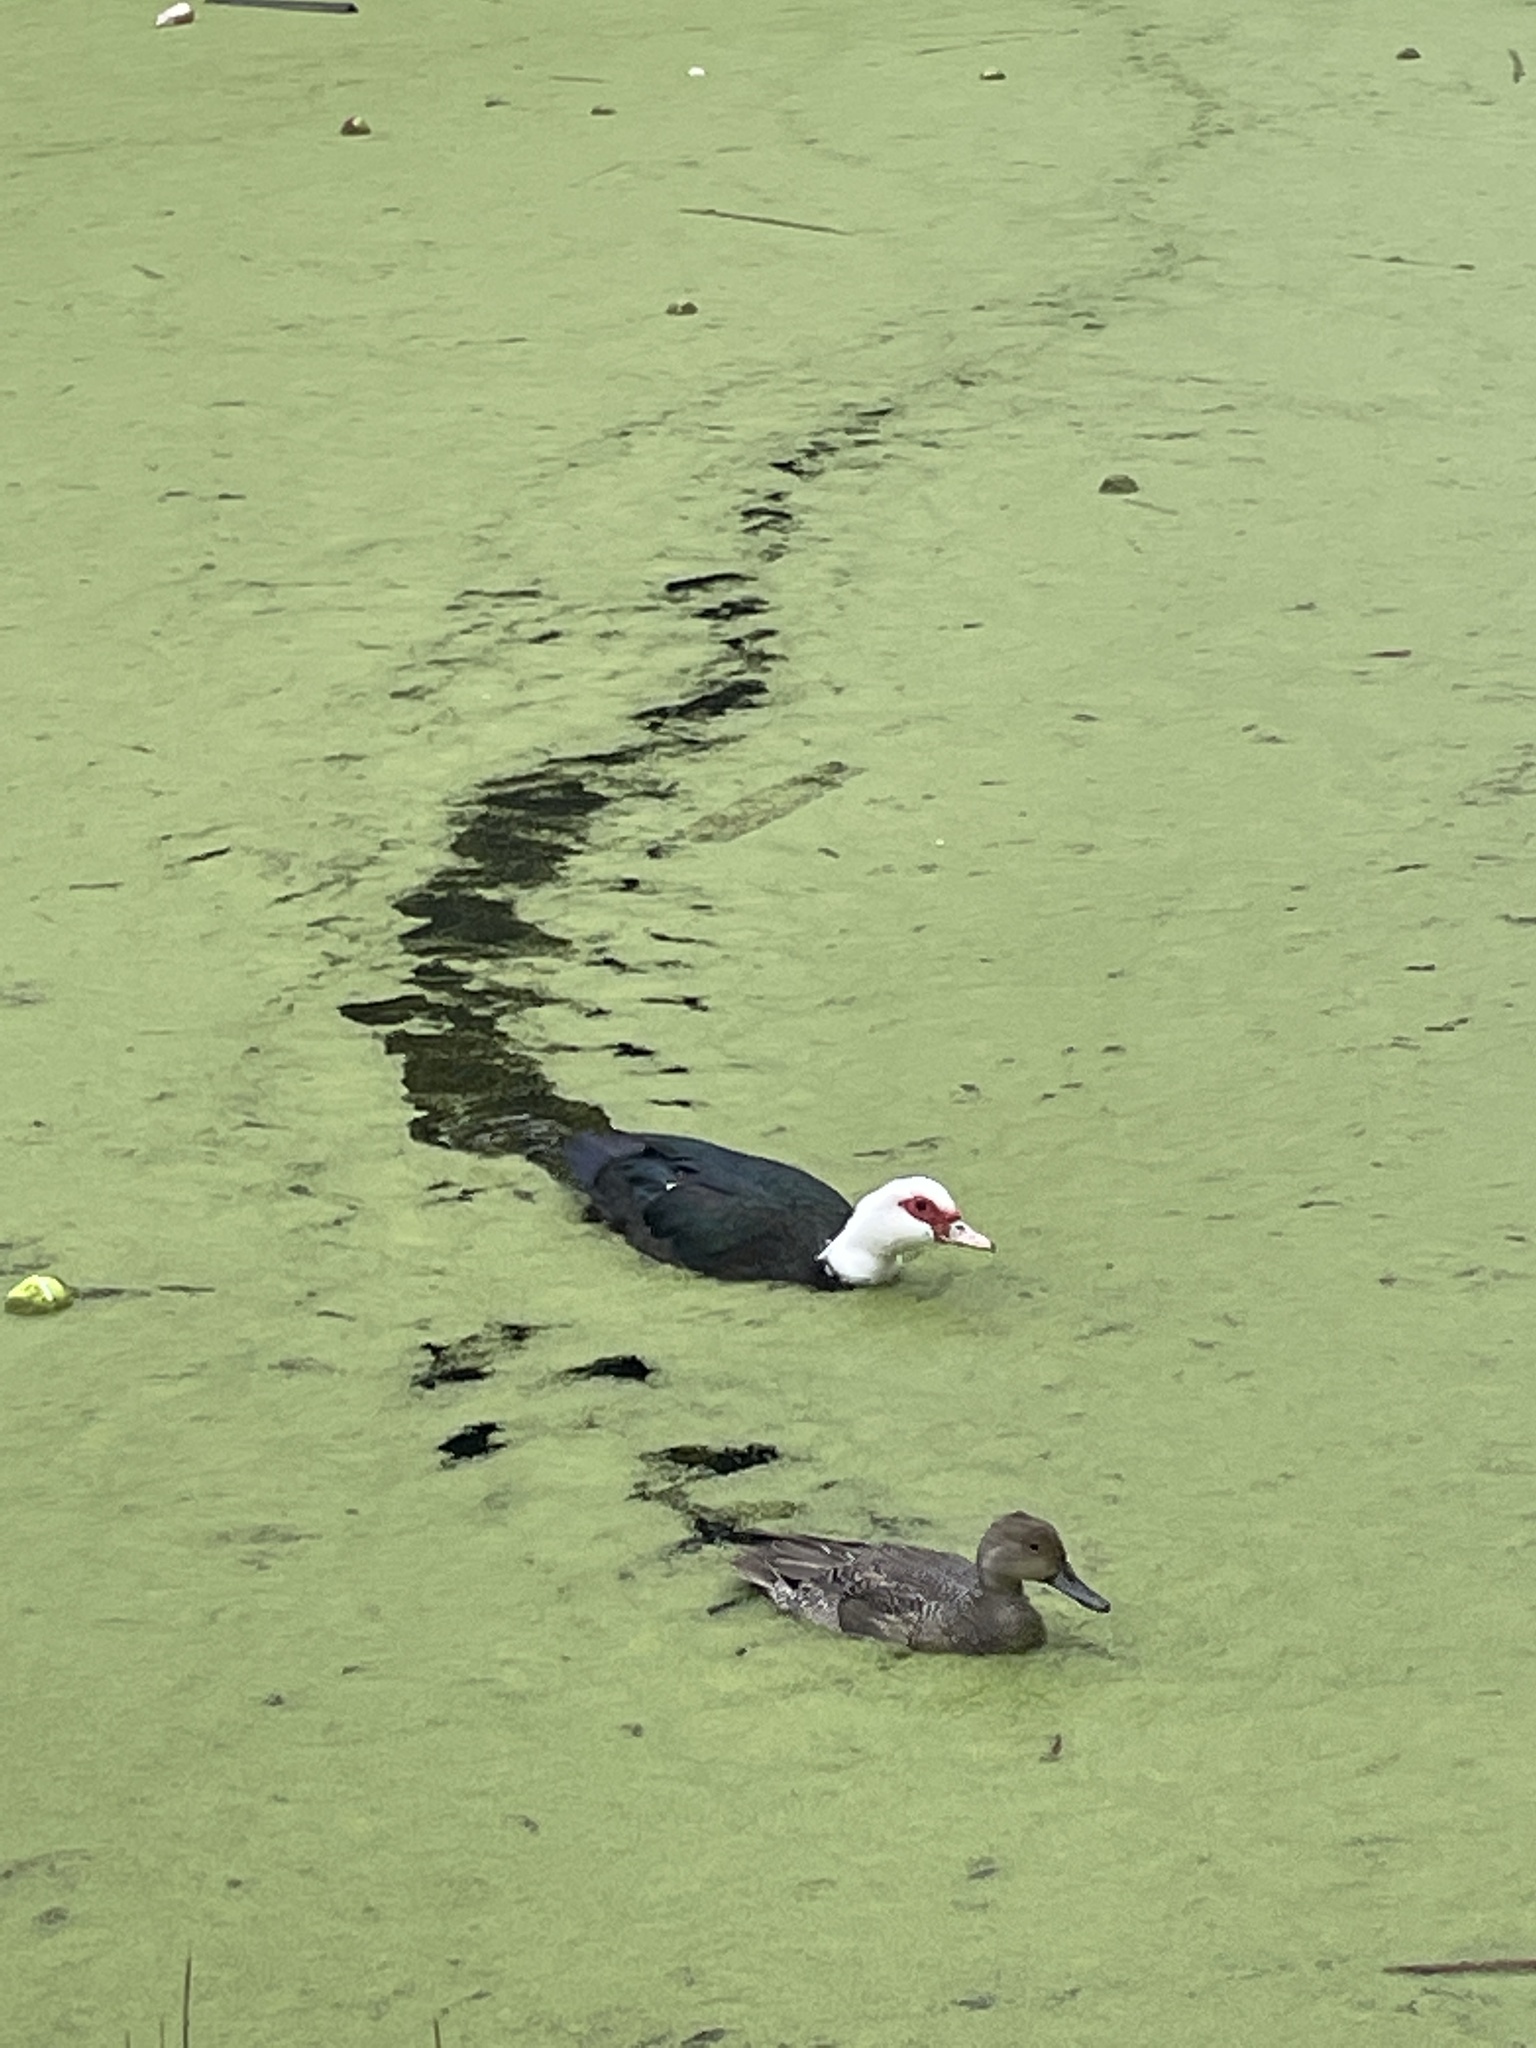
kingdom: Animalia
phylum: Chordata
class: Aves
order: Anseriformes
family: Anatidae
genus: Cairina
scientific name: Cairina moschata
